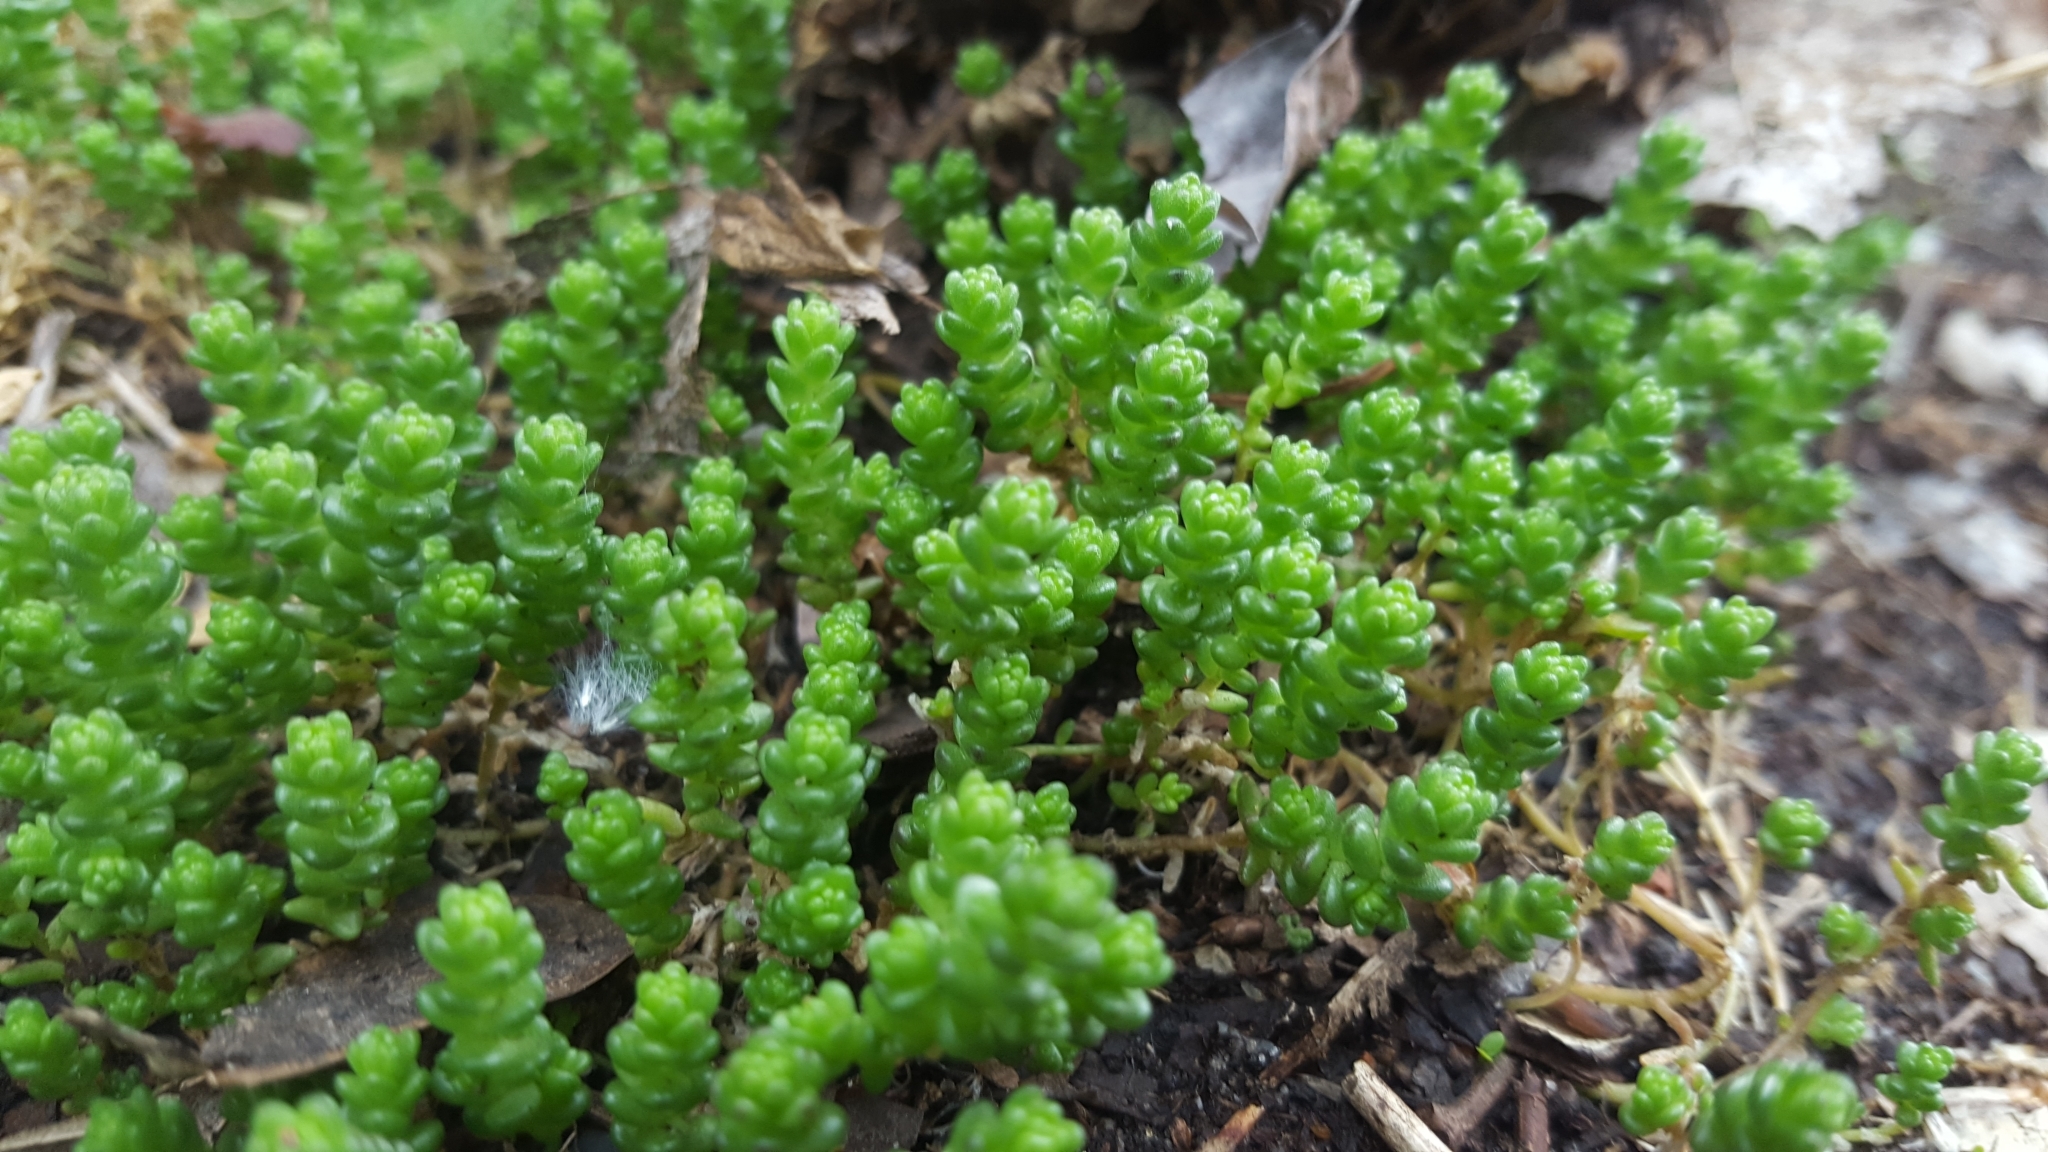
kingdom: Plantae
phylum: Tracheophyta
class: Magnoliopsida
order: Saxifragales
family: Crassulaceae
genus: Sedum
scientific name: Sedum acre
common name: Biting stonecrop
